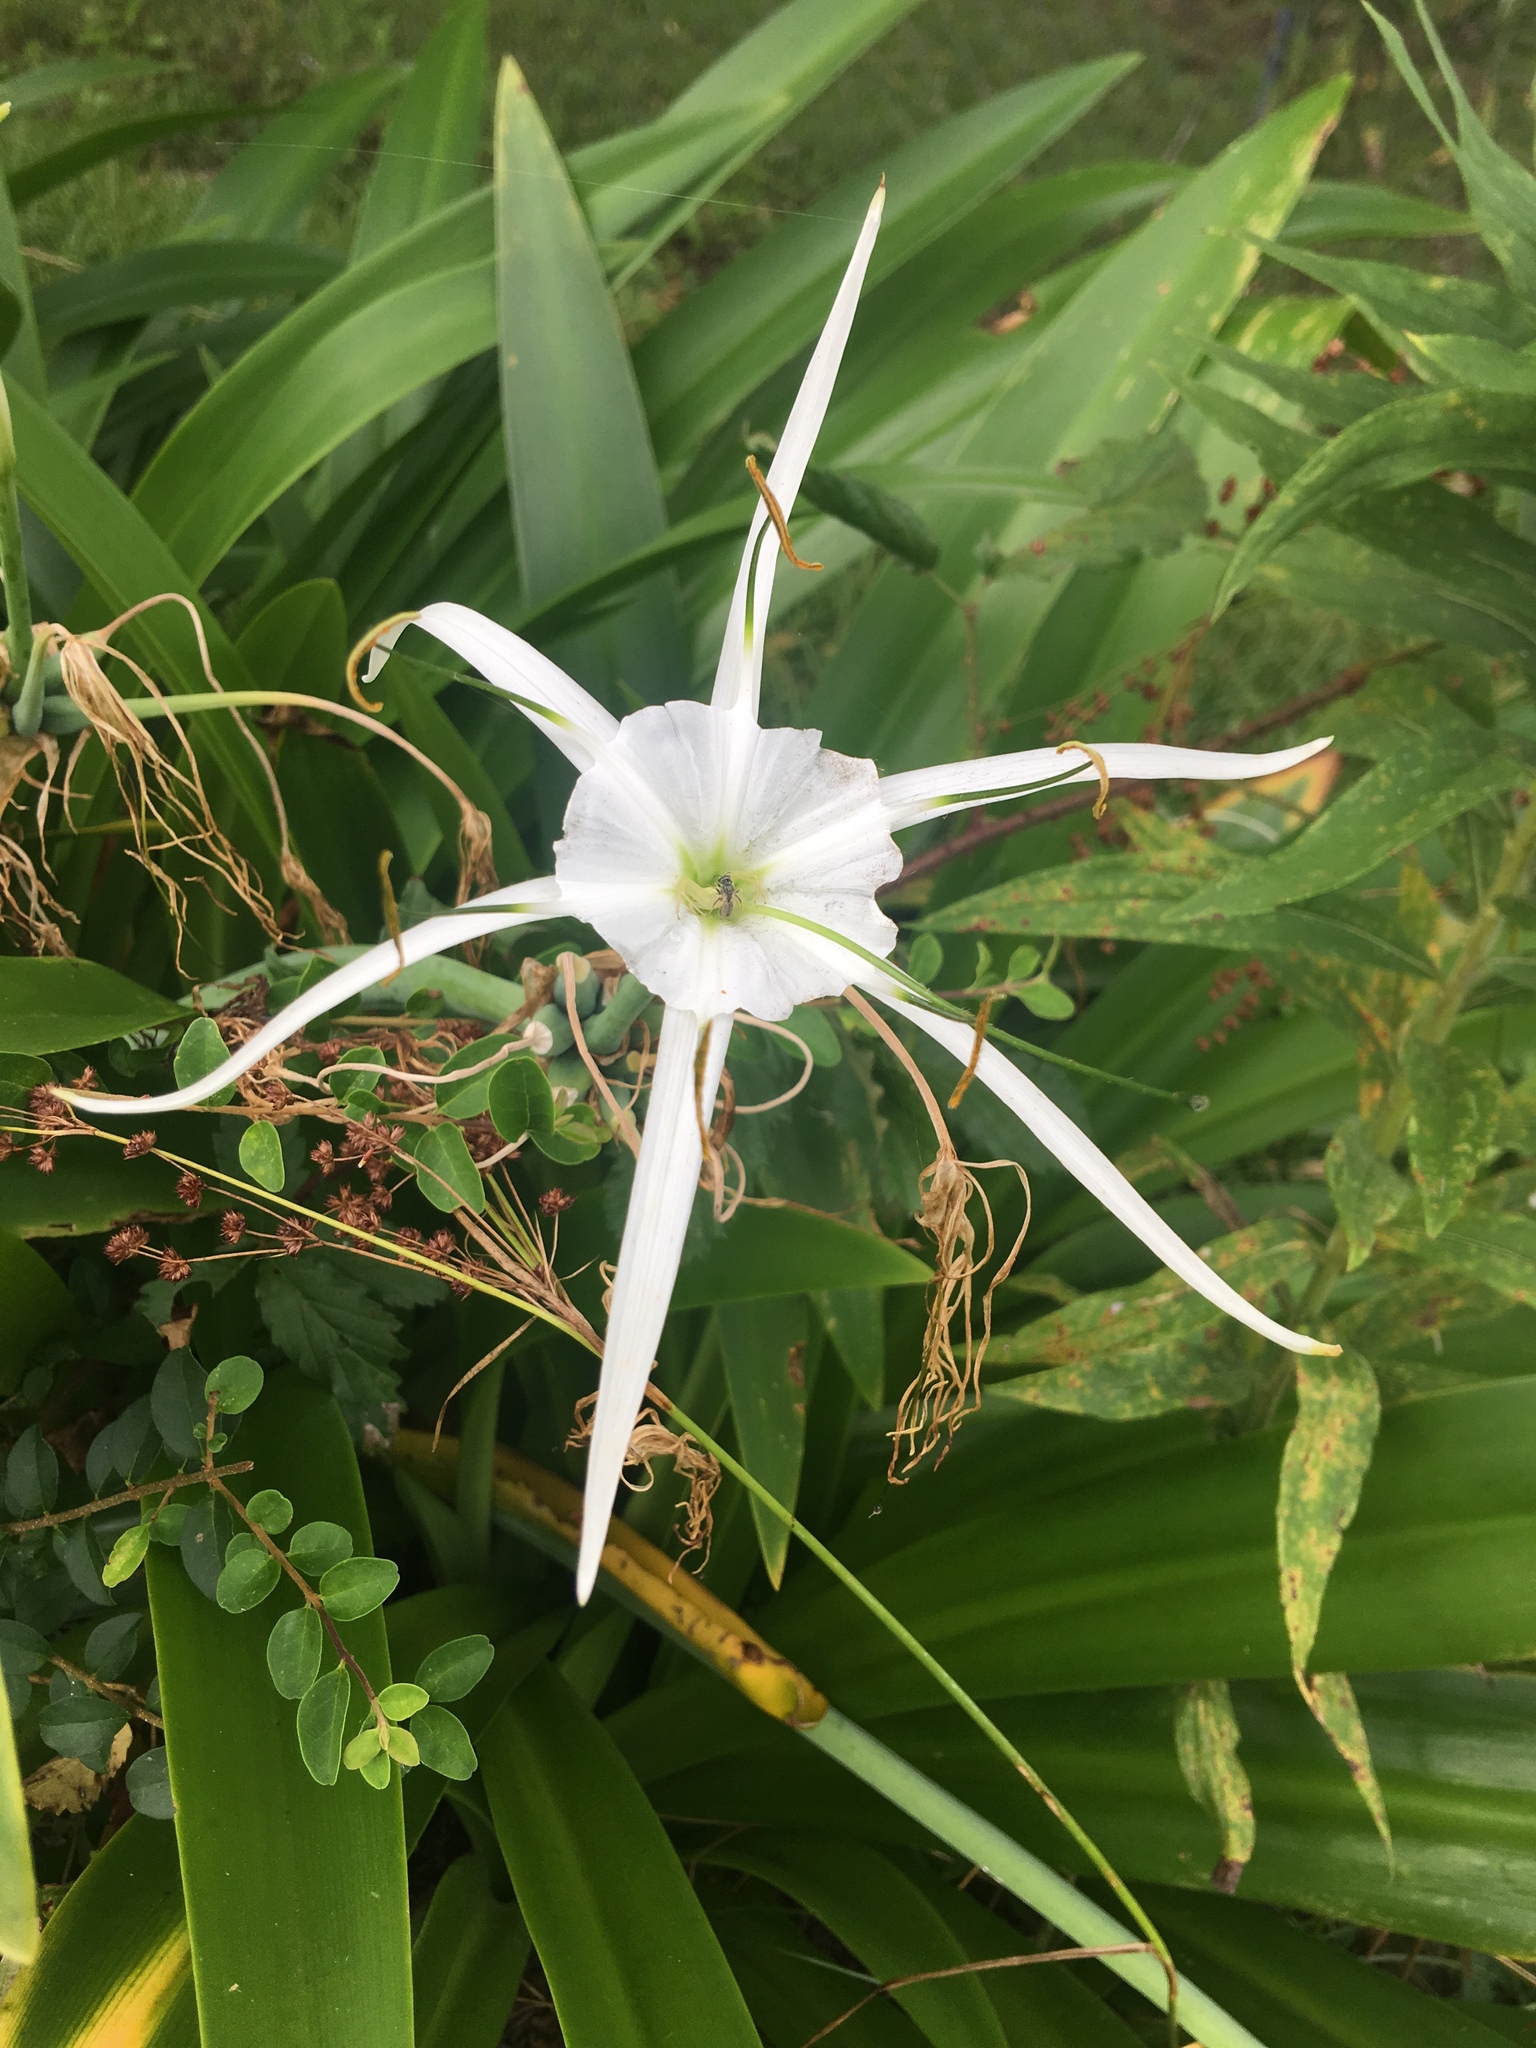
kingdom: Plantae
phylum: Tracheophyta
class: Liliopsida
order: Asparagales
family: Amaryllidaceae
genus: Hymenocallis
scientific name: Hymenocallis occidentalis
